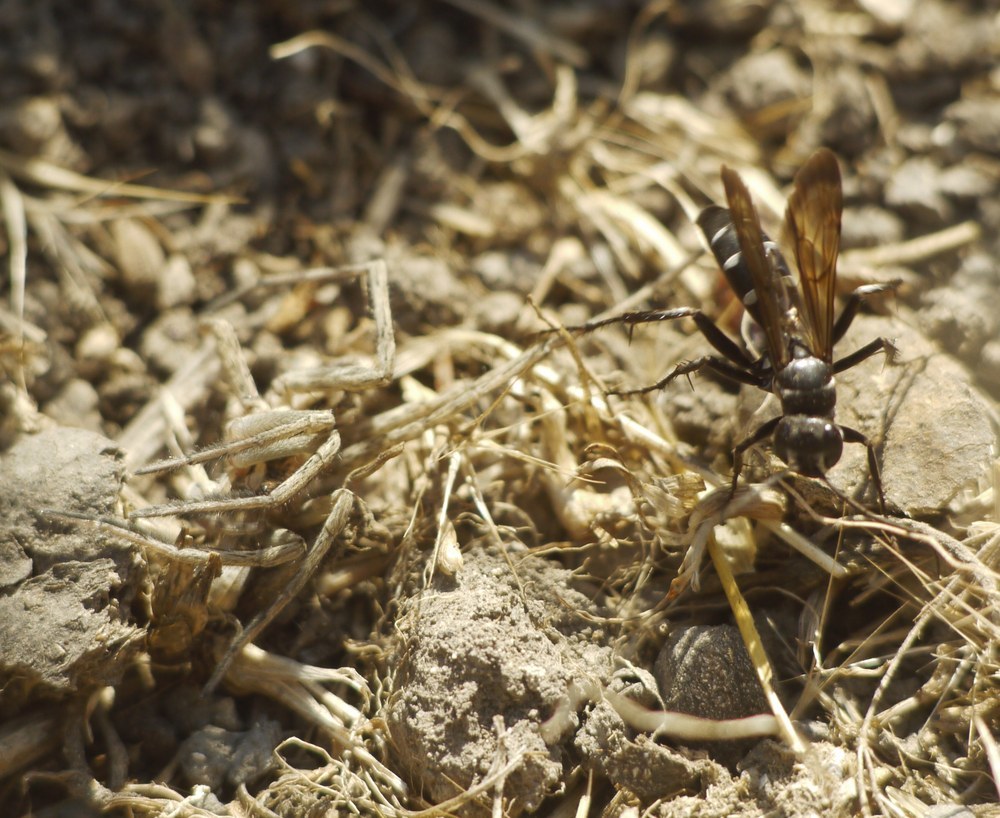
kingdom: Animalia
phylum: Arthropoda
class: Insecta
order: Hymenoptera
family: Pompilidae
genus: Dicyrtomellus
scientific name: Dicyrtomellus tingitanus
